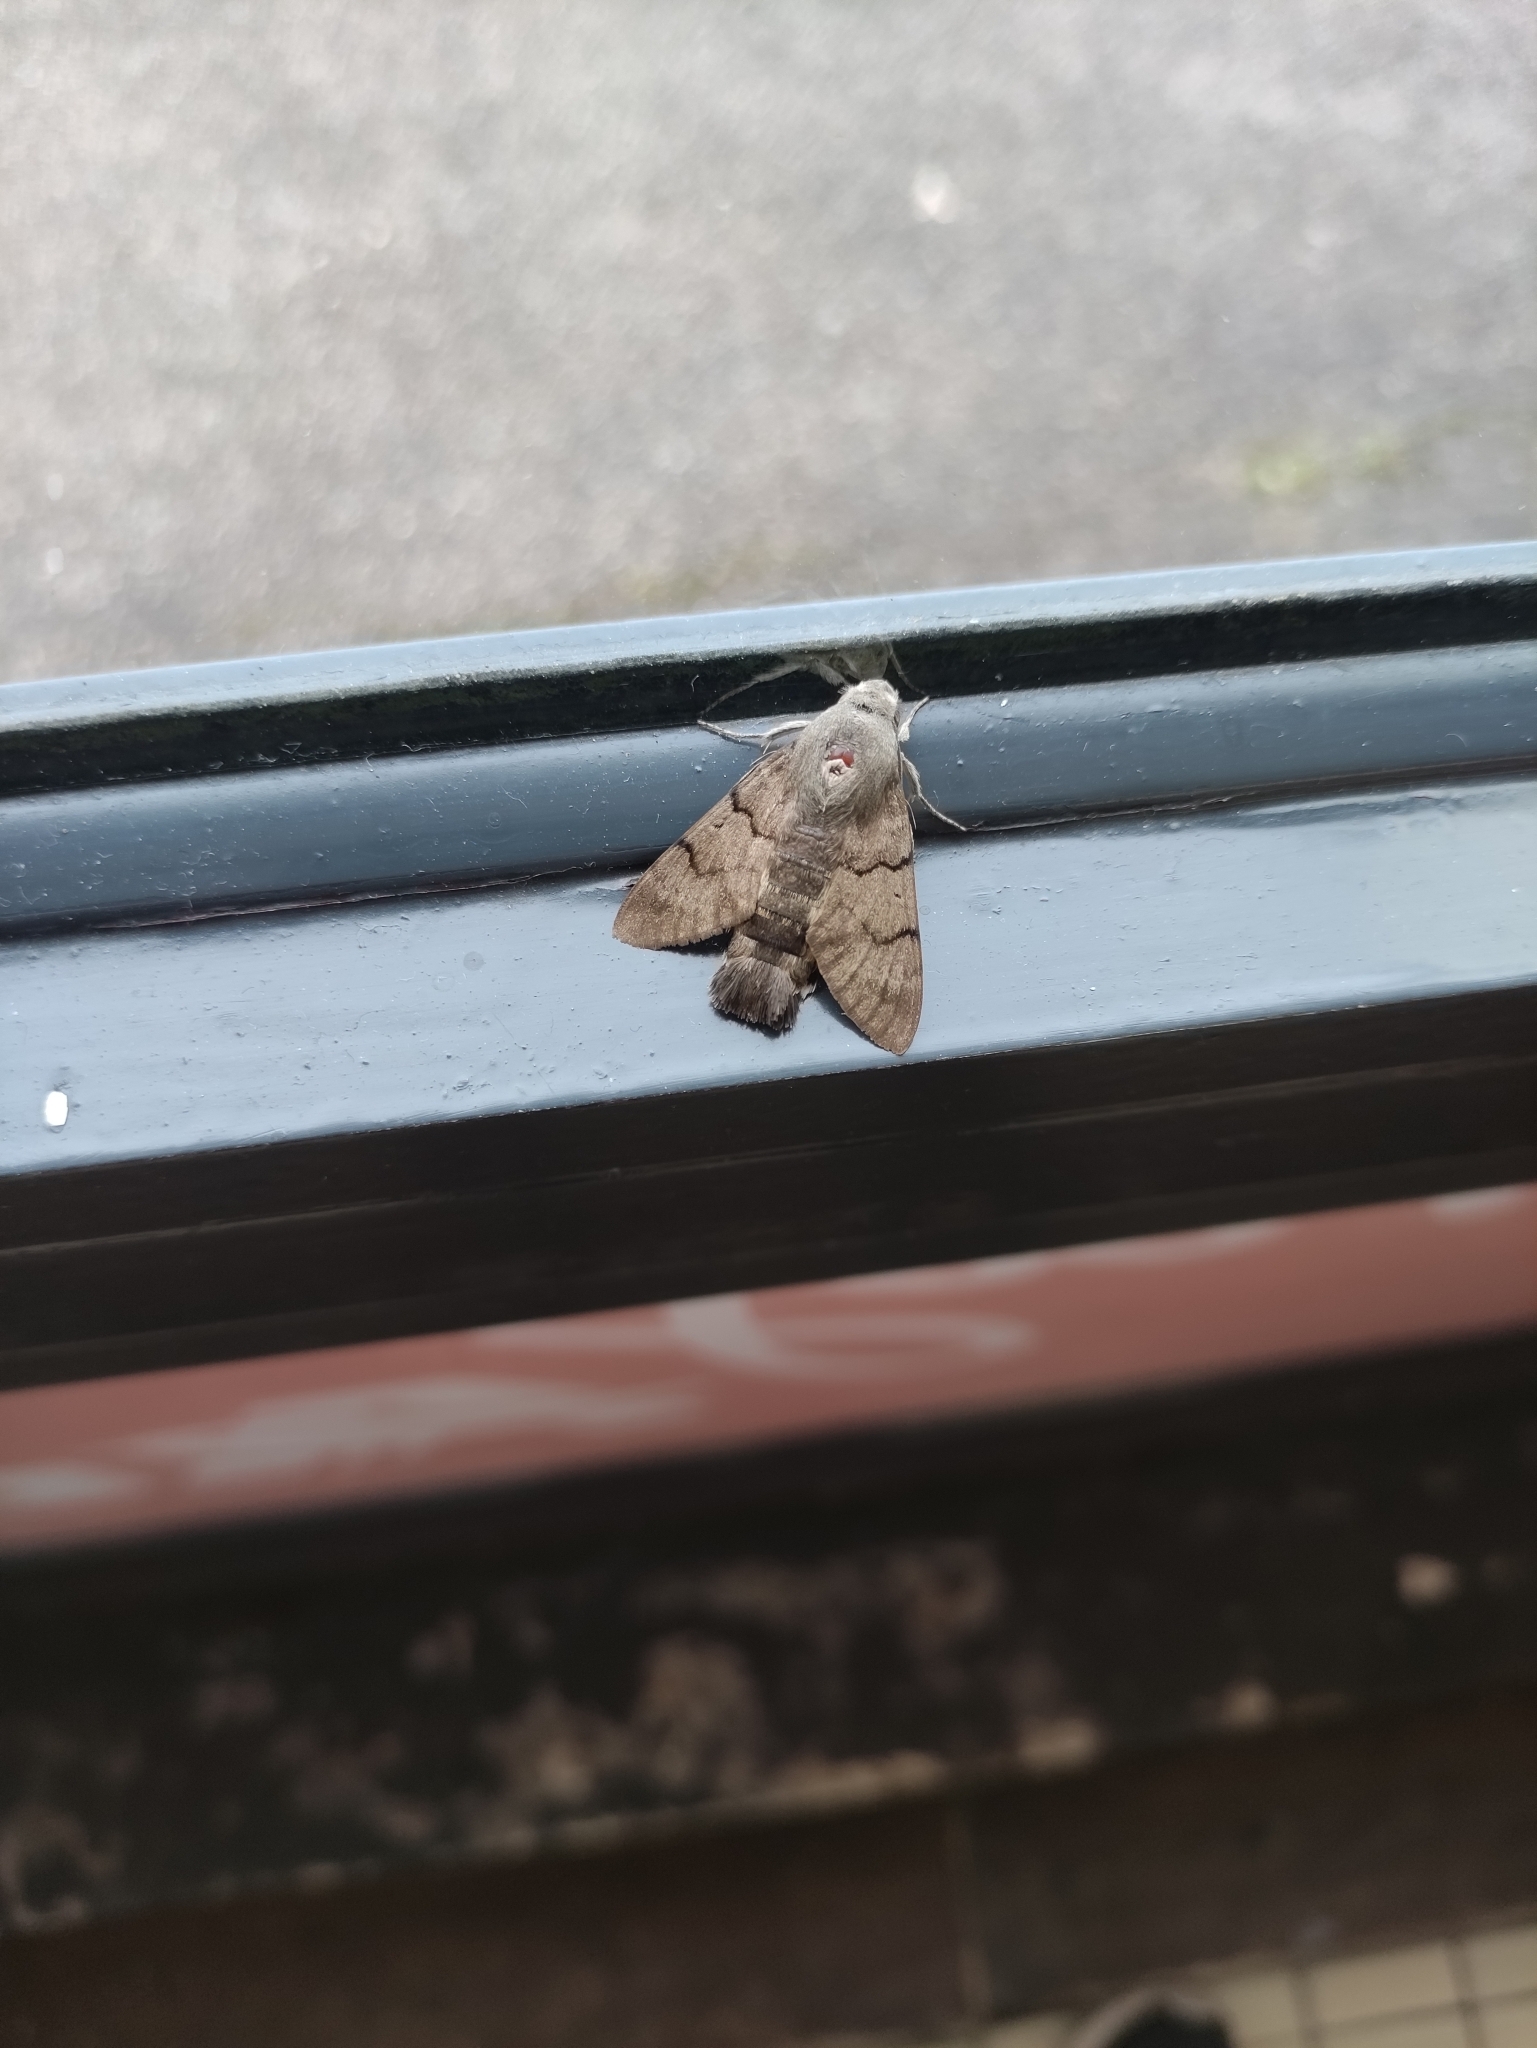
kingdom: Animalia
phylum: Arthropoda
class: Insecta
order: Lepidoptera
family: Sphingidae
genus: Macroglossum
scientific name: Macroglossum stellatarum
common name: Humming-bird hawk-moth
